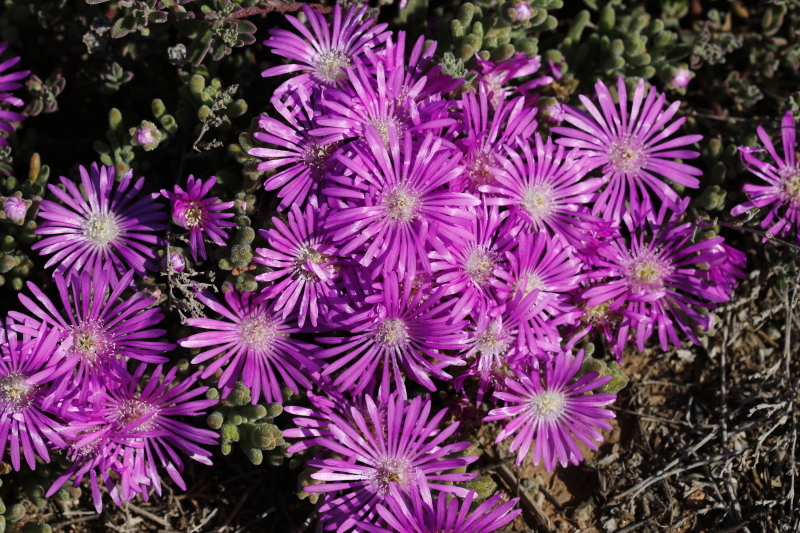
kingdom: Plantae
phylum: Tracheophyta
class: Magnoliopsida
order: Caryophyllales
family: Aizoaceae
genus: Drosanthemum
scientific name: Drosanthemum hispidum
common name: Hairy dewflower
